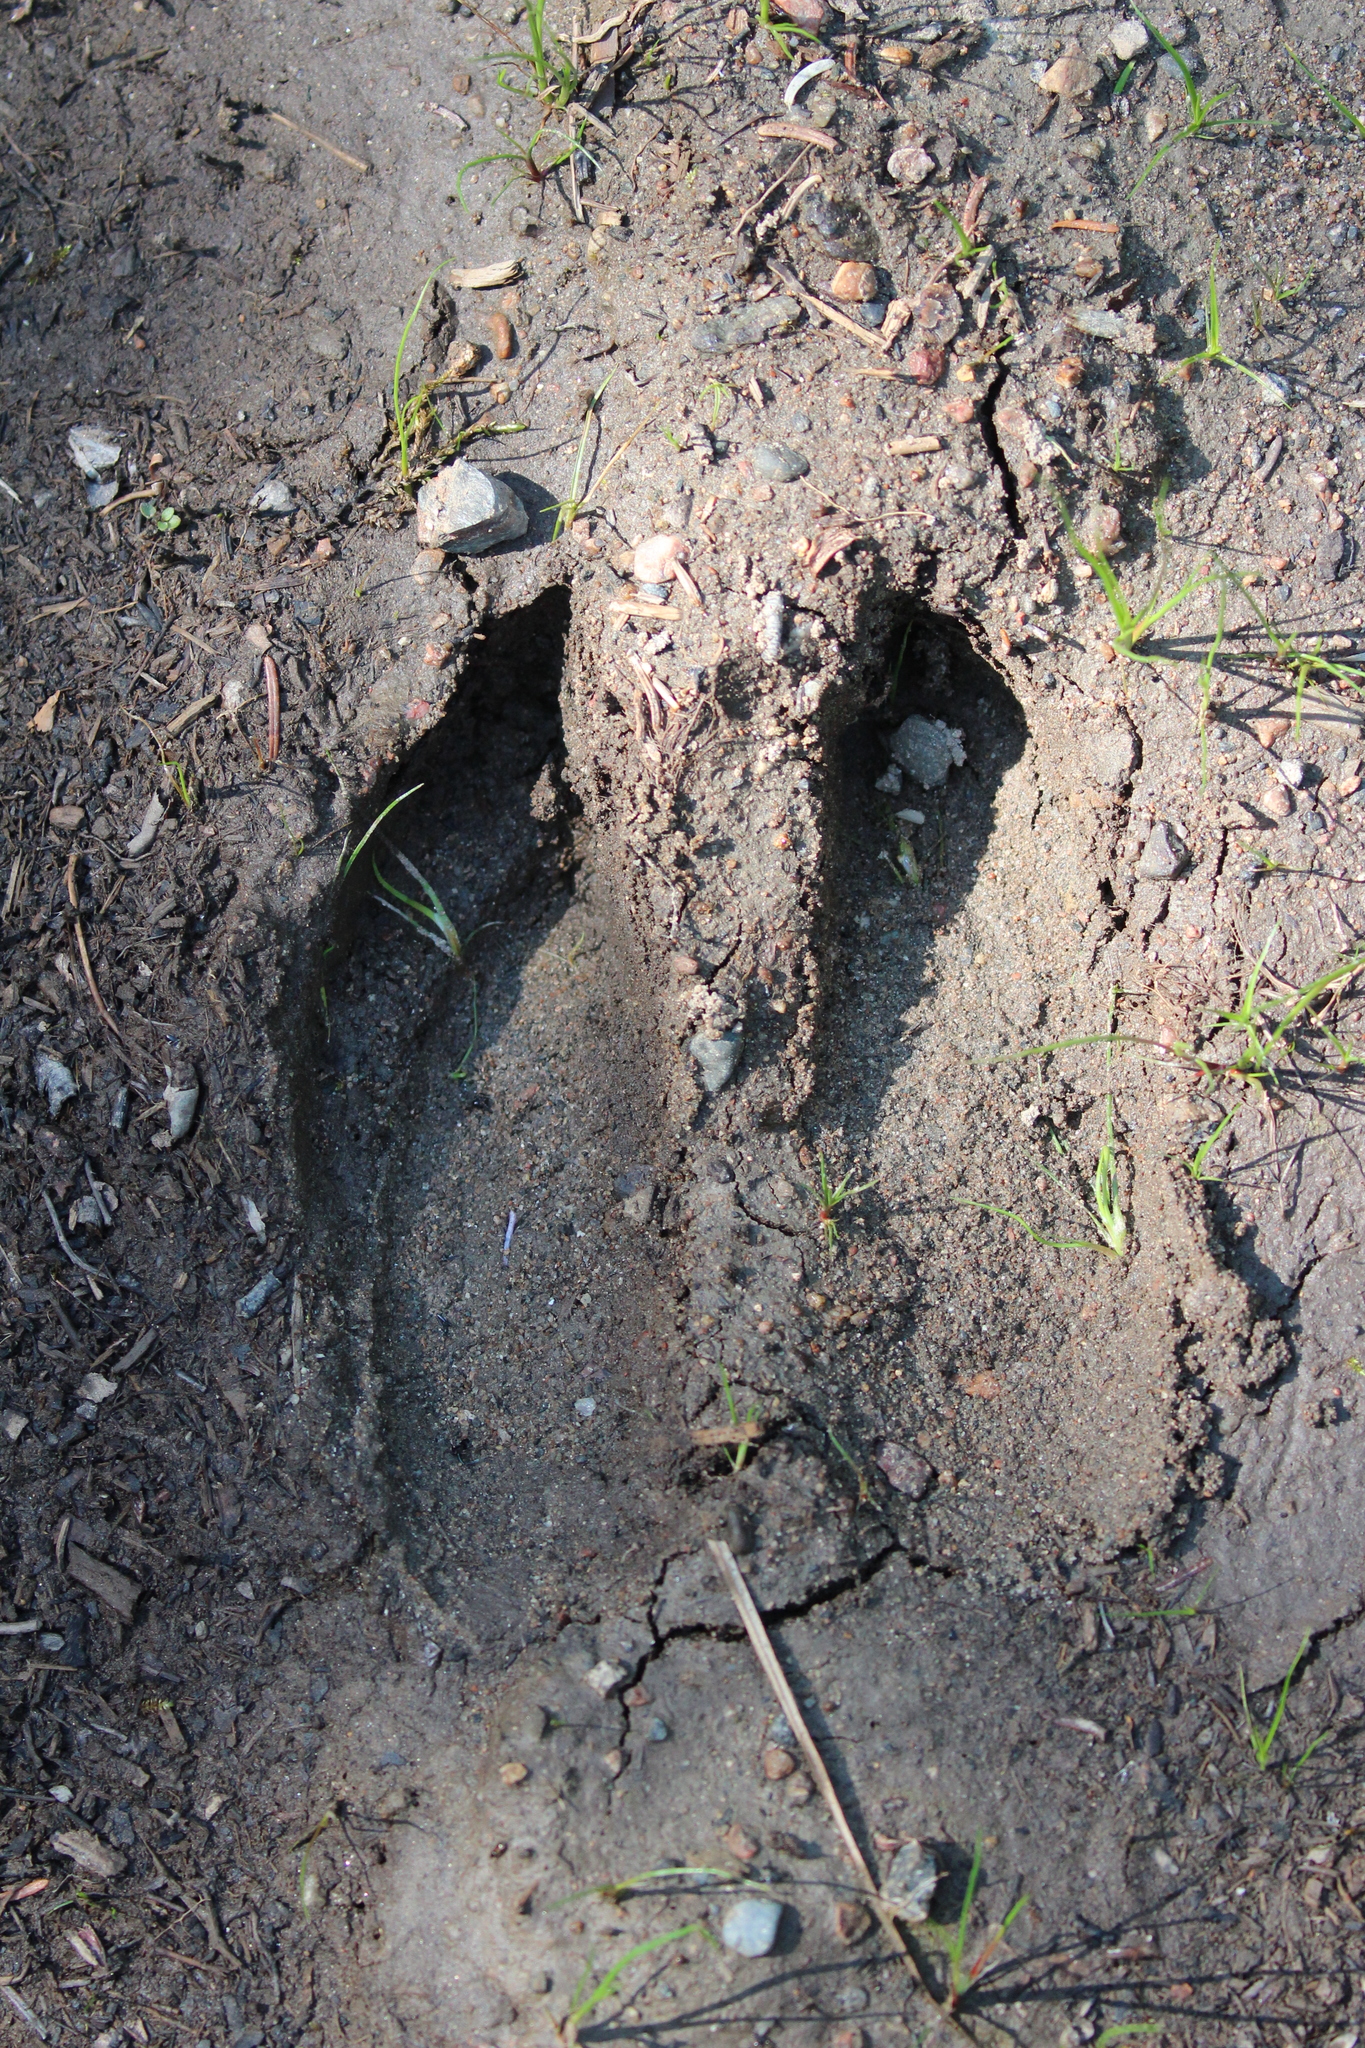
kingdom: Animalia
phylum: Chordata
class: Mammalia
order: Artiodactyla
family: Cervidae
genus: Alces
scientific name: Alces alces
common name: Moose
